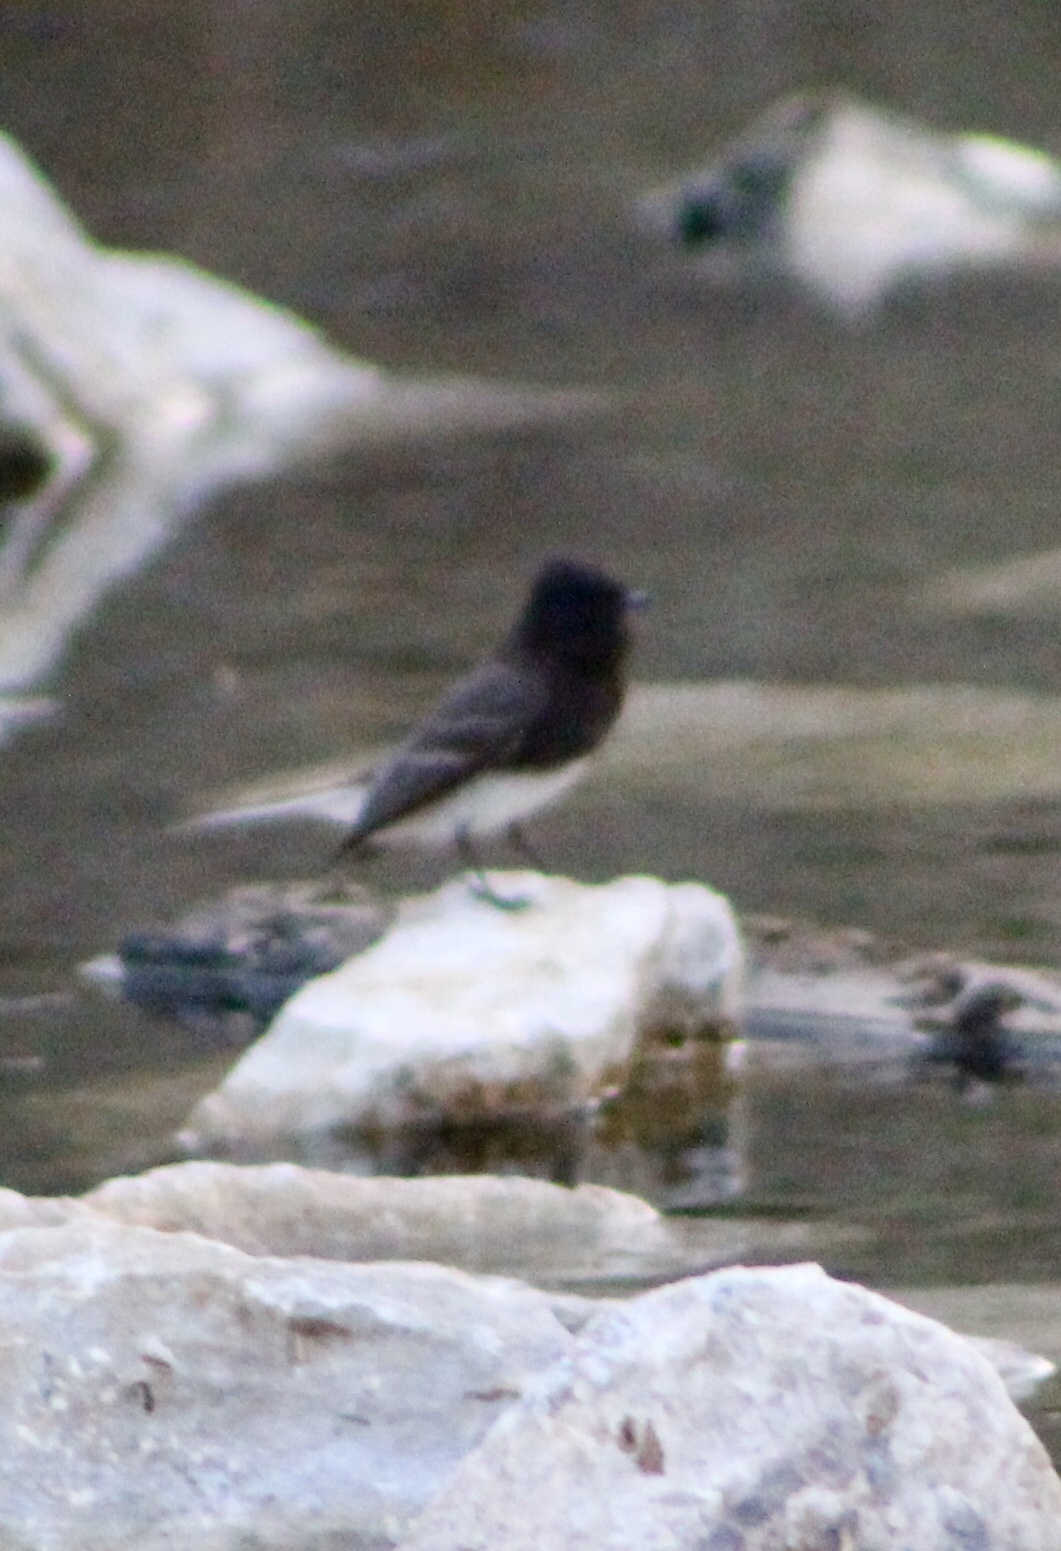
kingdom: Animalia
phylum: Chordata
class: Aves
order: Passeriformes
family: Tyrannidae
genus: Sayornis
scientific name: Sayornis nigricans
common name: Black phoebe
